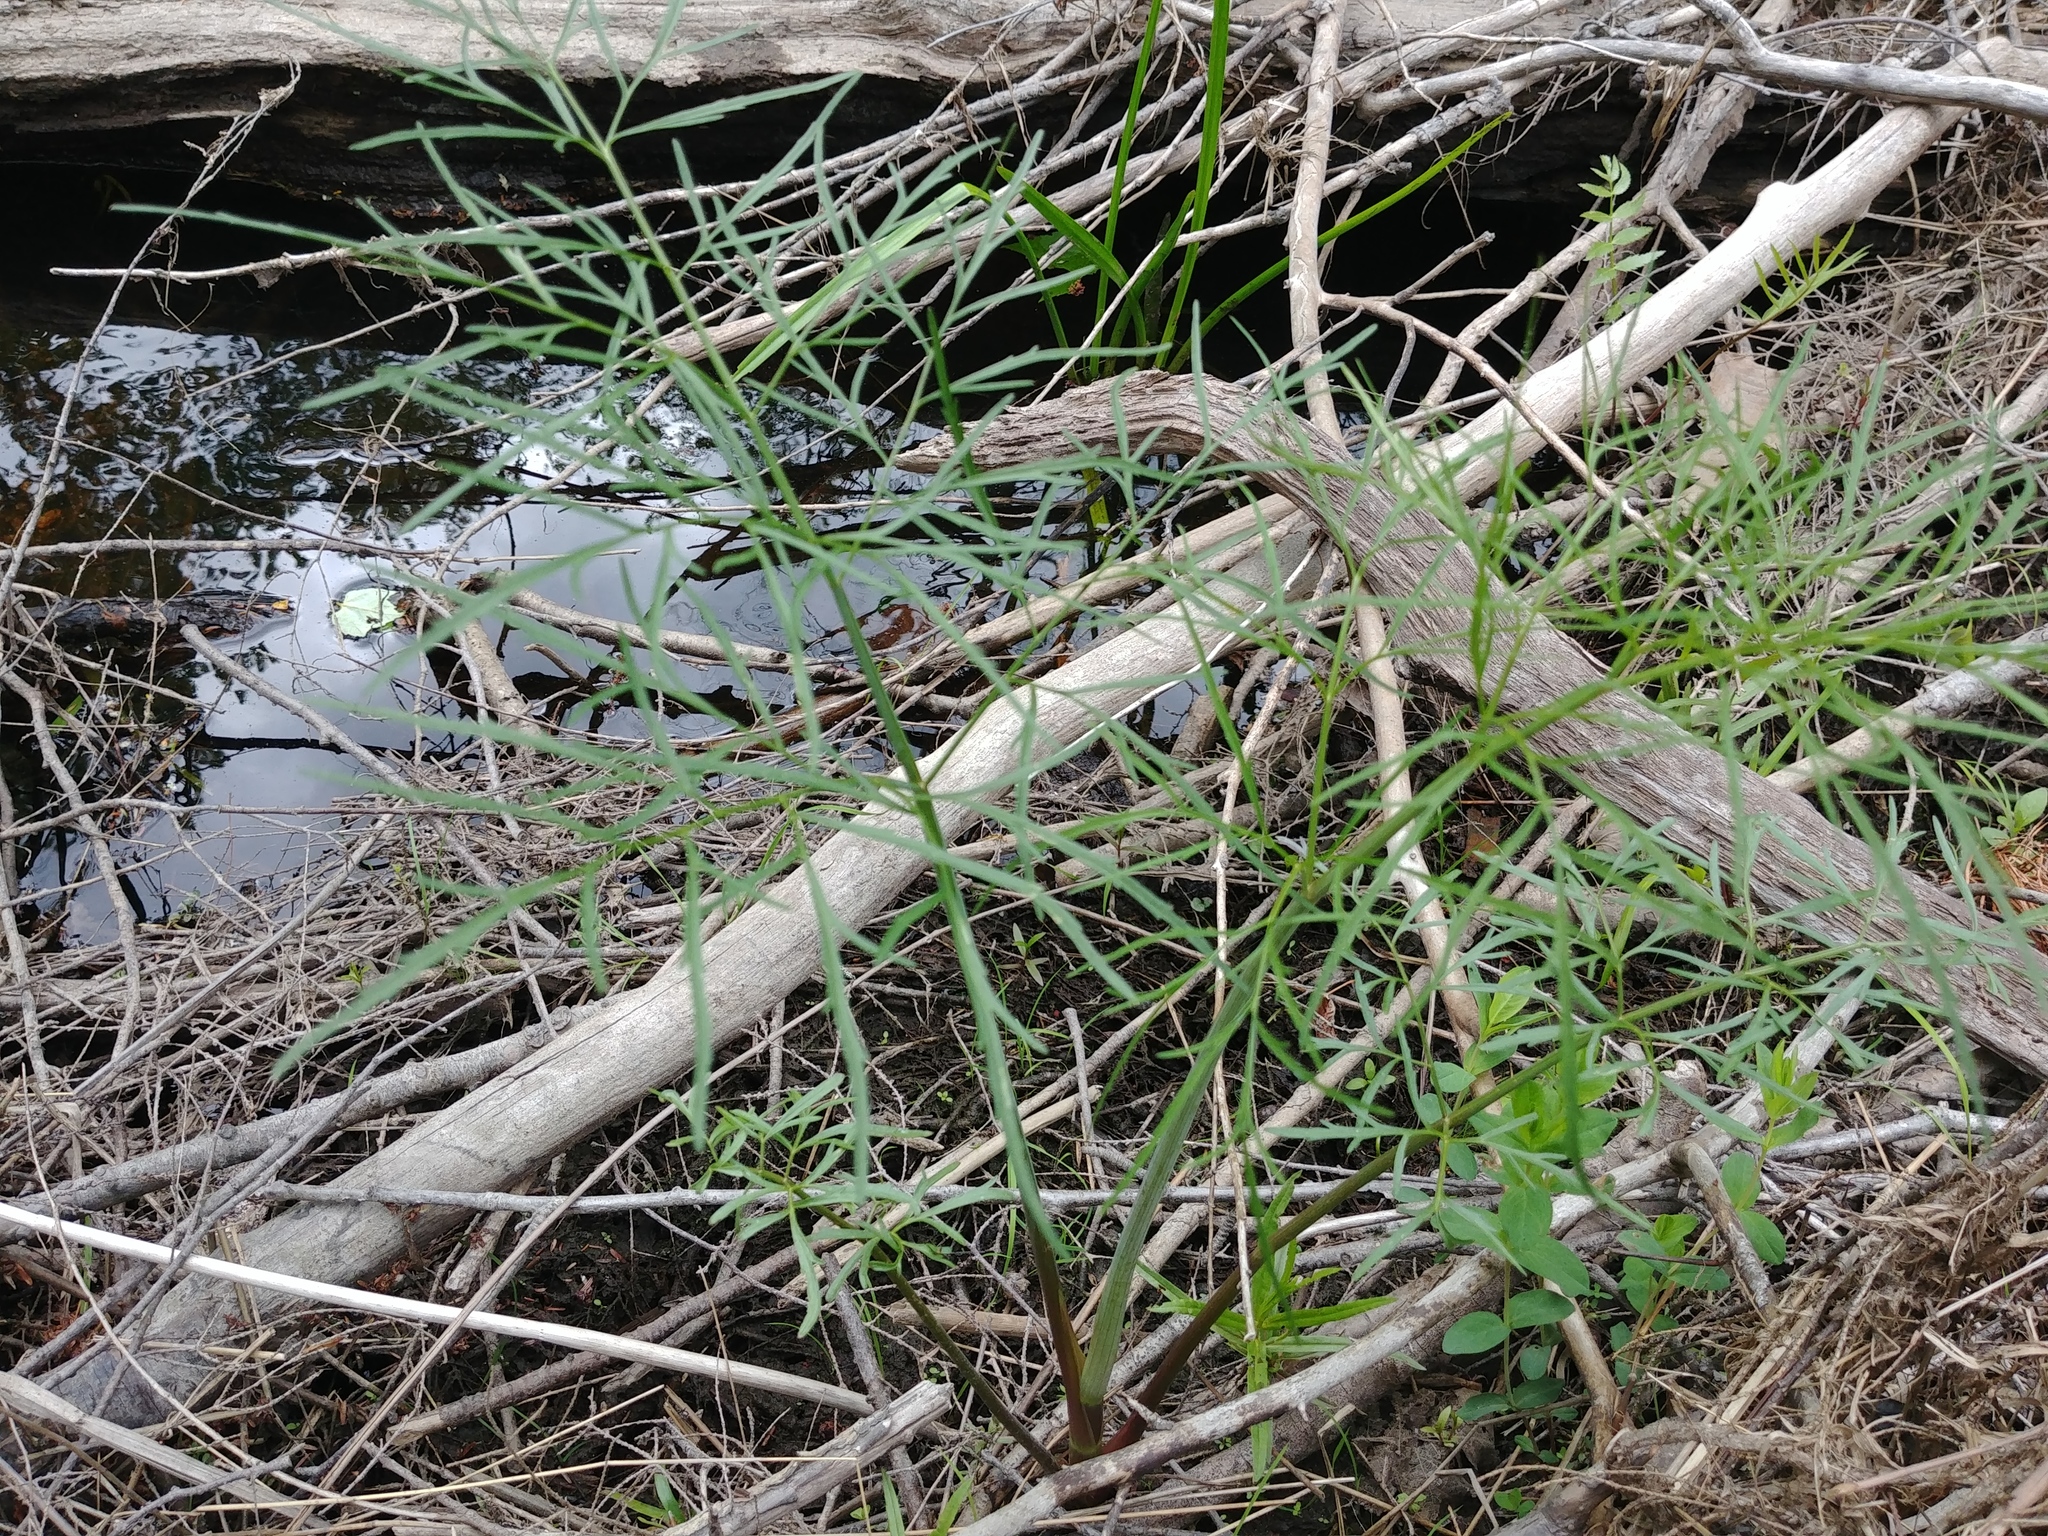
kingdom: Plantae
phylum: Tracheophyta
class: Magnoliopsida
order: Apiales
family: Apiaceae
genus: Cicuta
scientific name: Cicuta bulbifera
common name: Bulb-bearing water-hemlock
